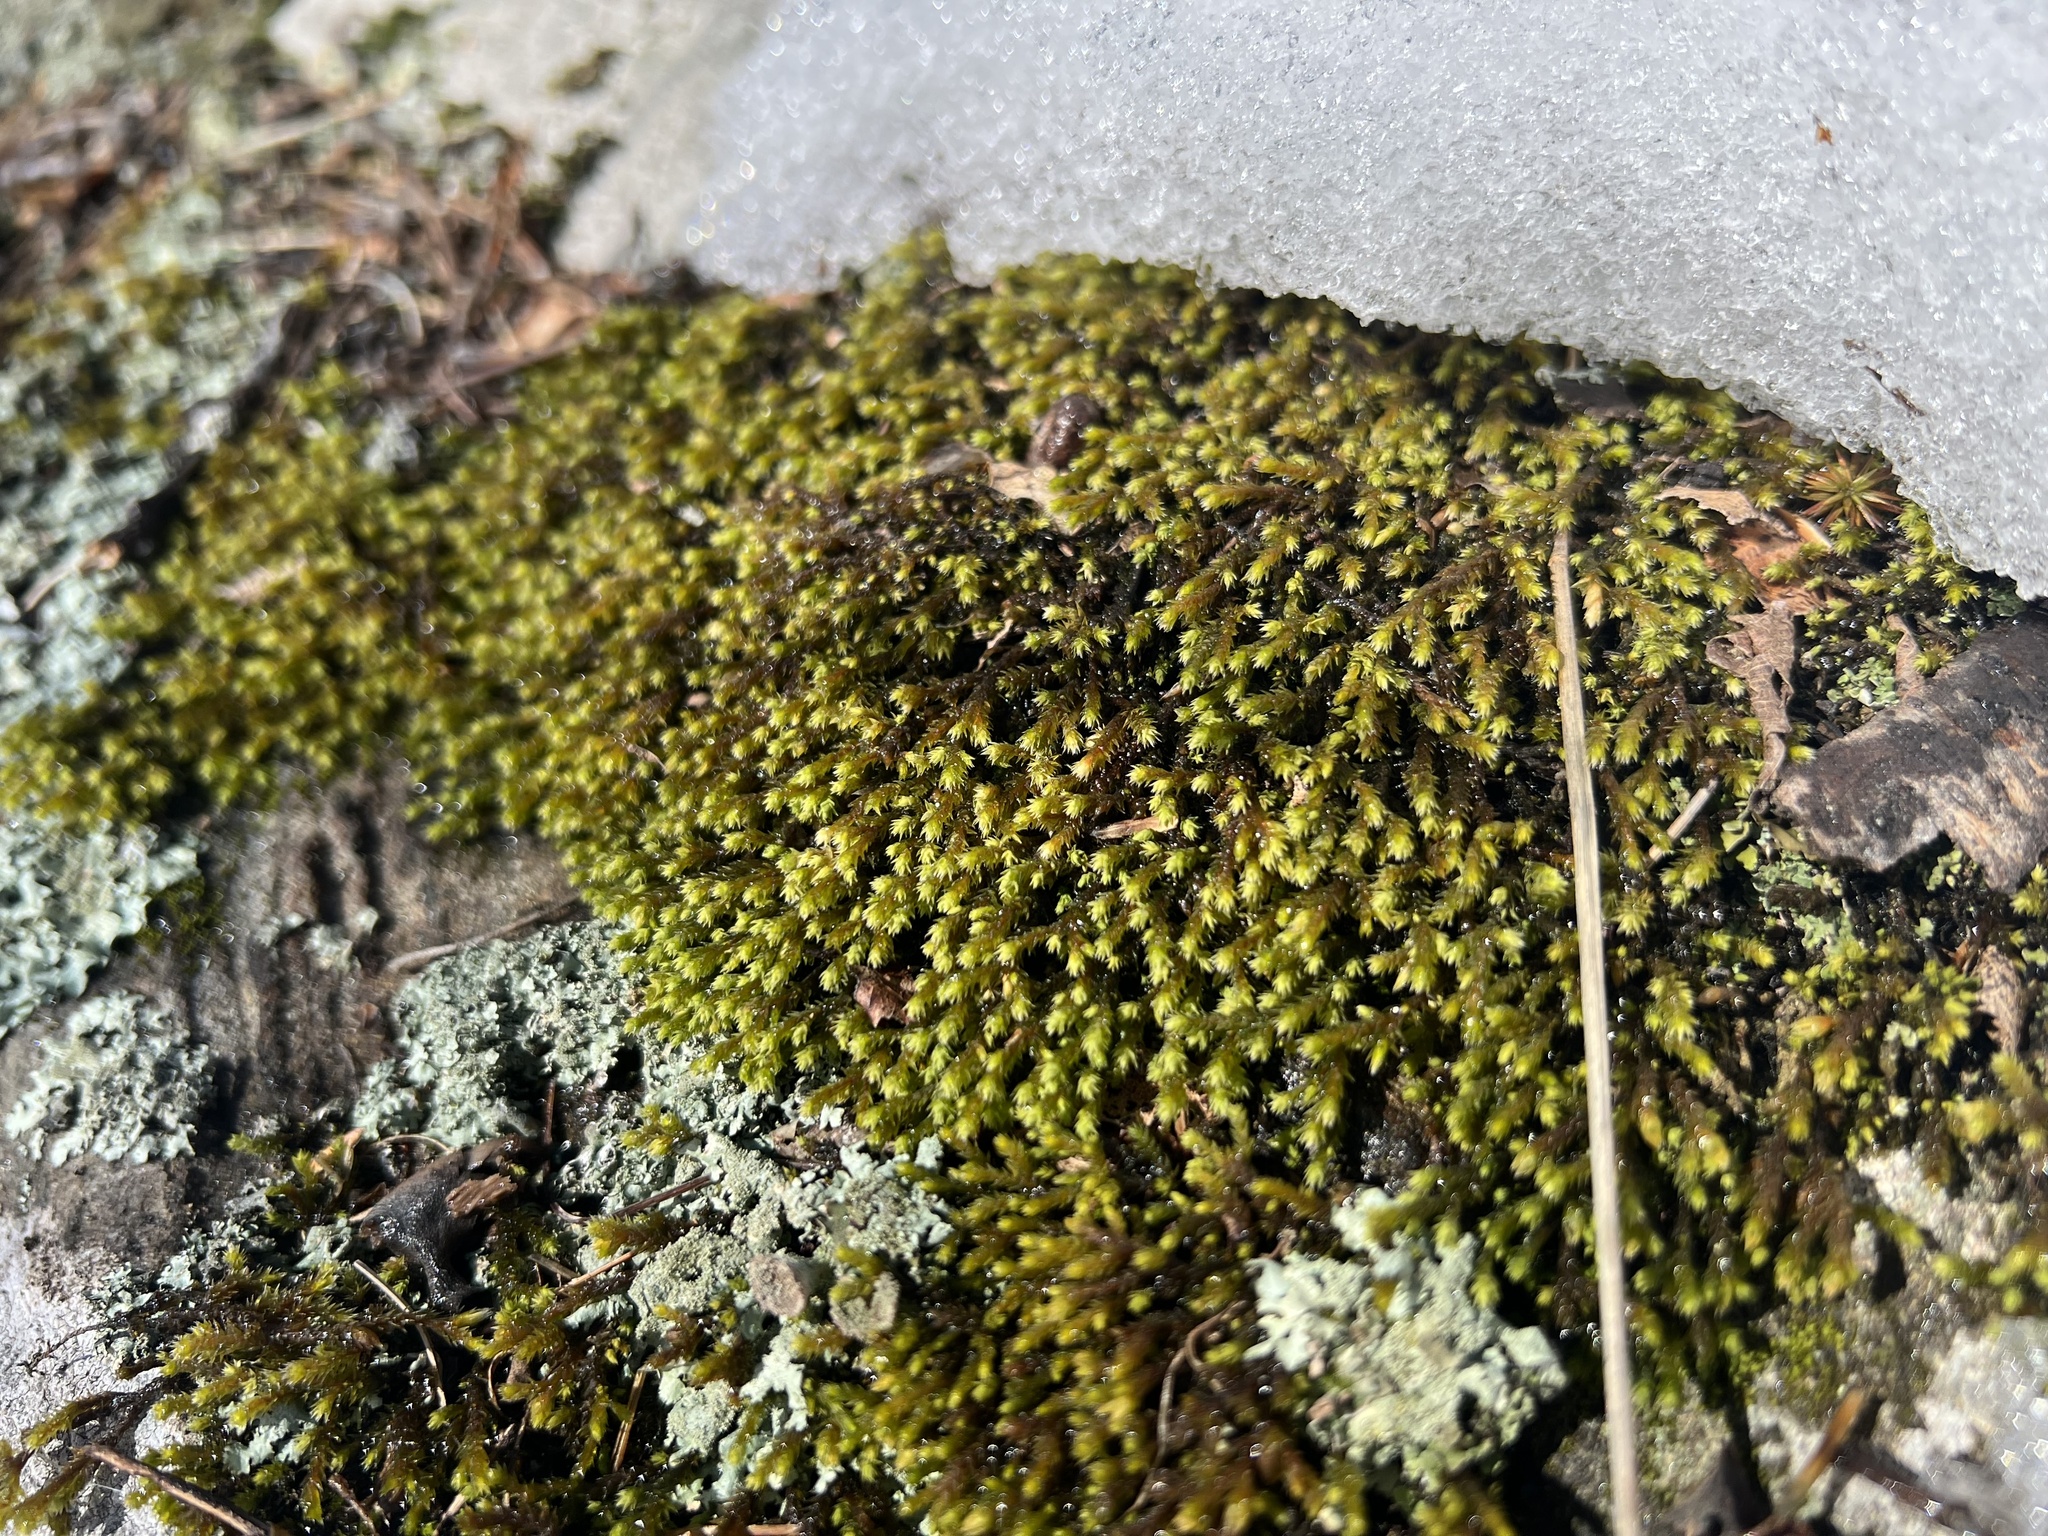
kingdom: Plantae
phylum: Bryophyta
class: Bryopsida
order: Hedwigiales
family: Hedwigiaceae
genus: Hedwigia
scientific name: Hedwigia ciliata
